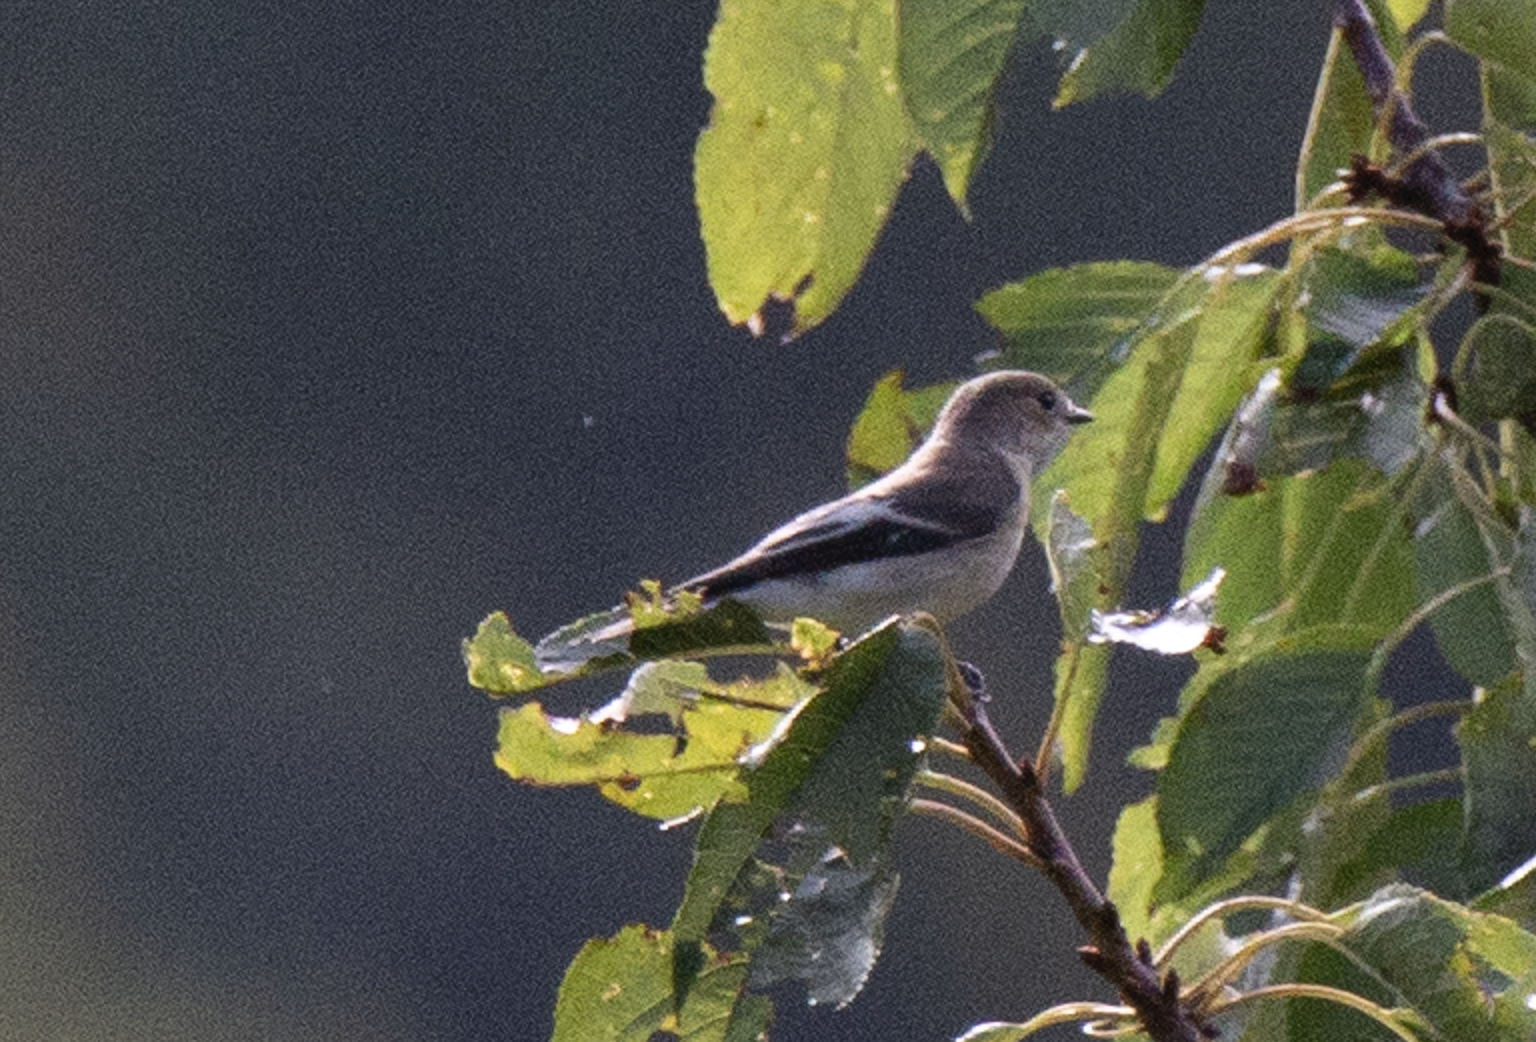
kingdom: Animalia
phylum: Chordata
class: Aves
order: Passeriformes
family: Muscicapidae
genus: Ficedula
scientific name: Ficedula hypoleuca
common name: European pied flycatcher
